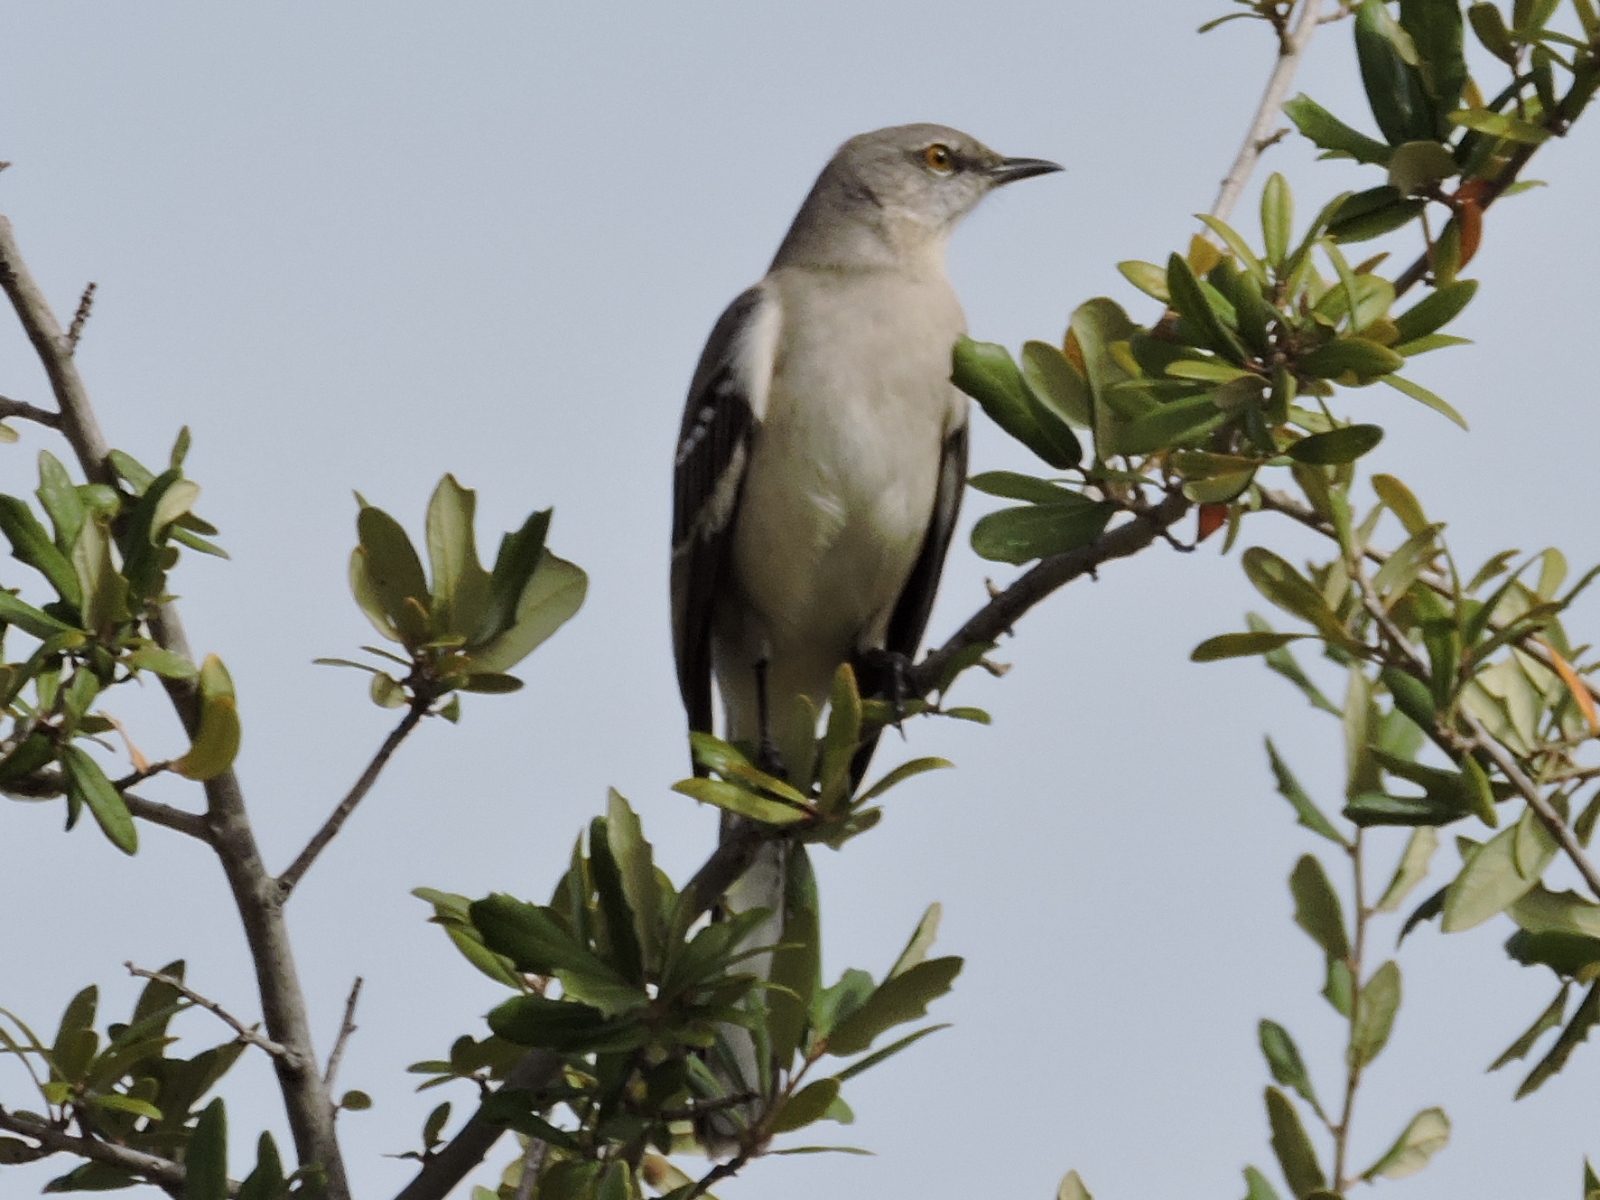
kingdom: Animalia
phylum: Chordata
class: Aves
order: Passeriformes
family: Mimidae
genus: Mimus
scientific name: Mimus polyglottos
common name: Northern mockingbird
